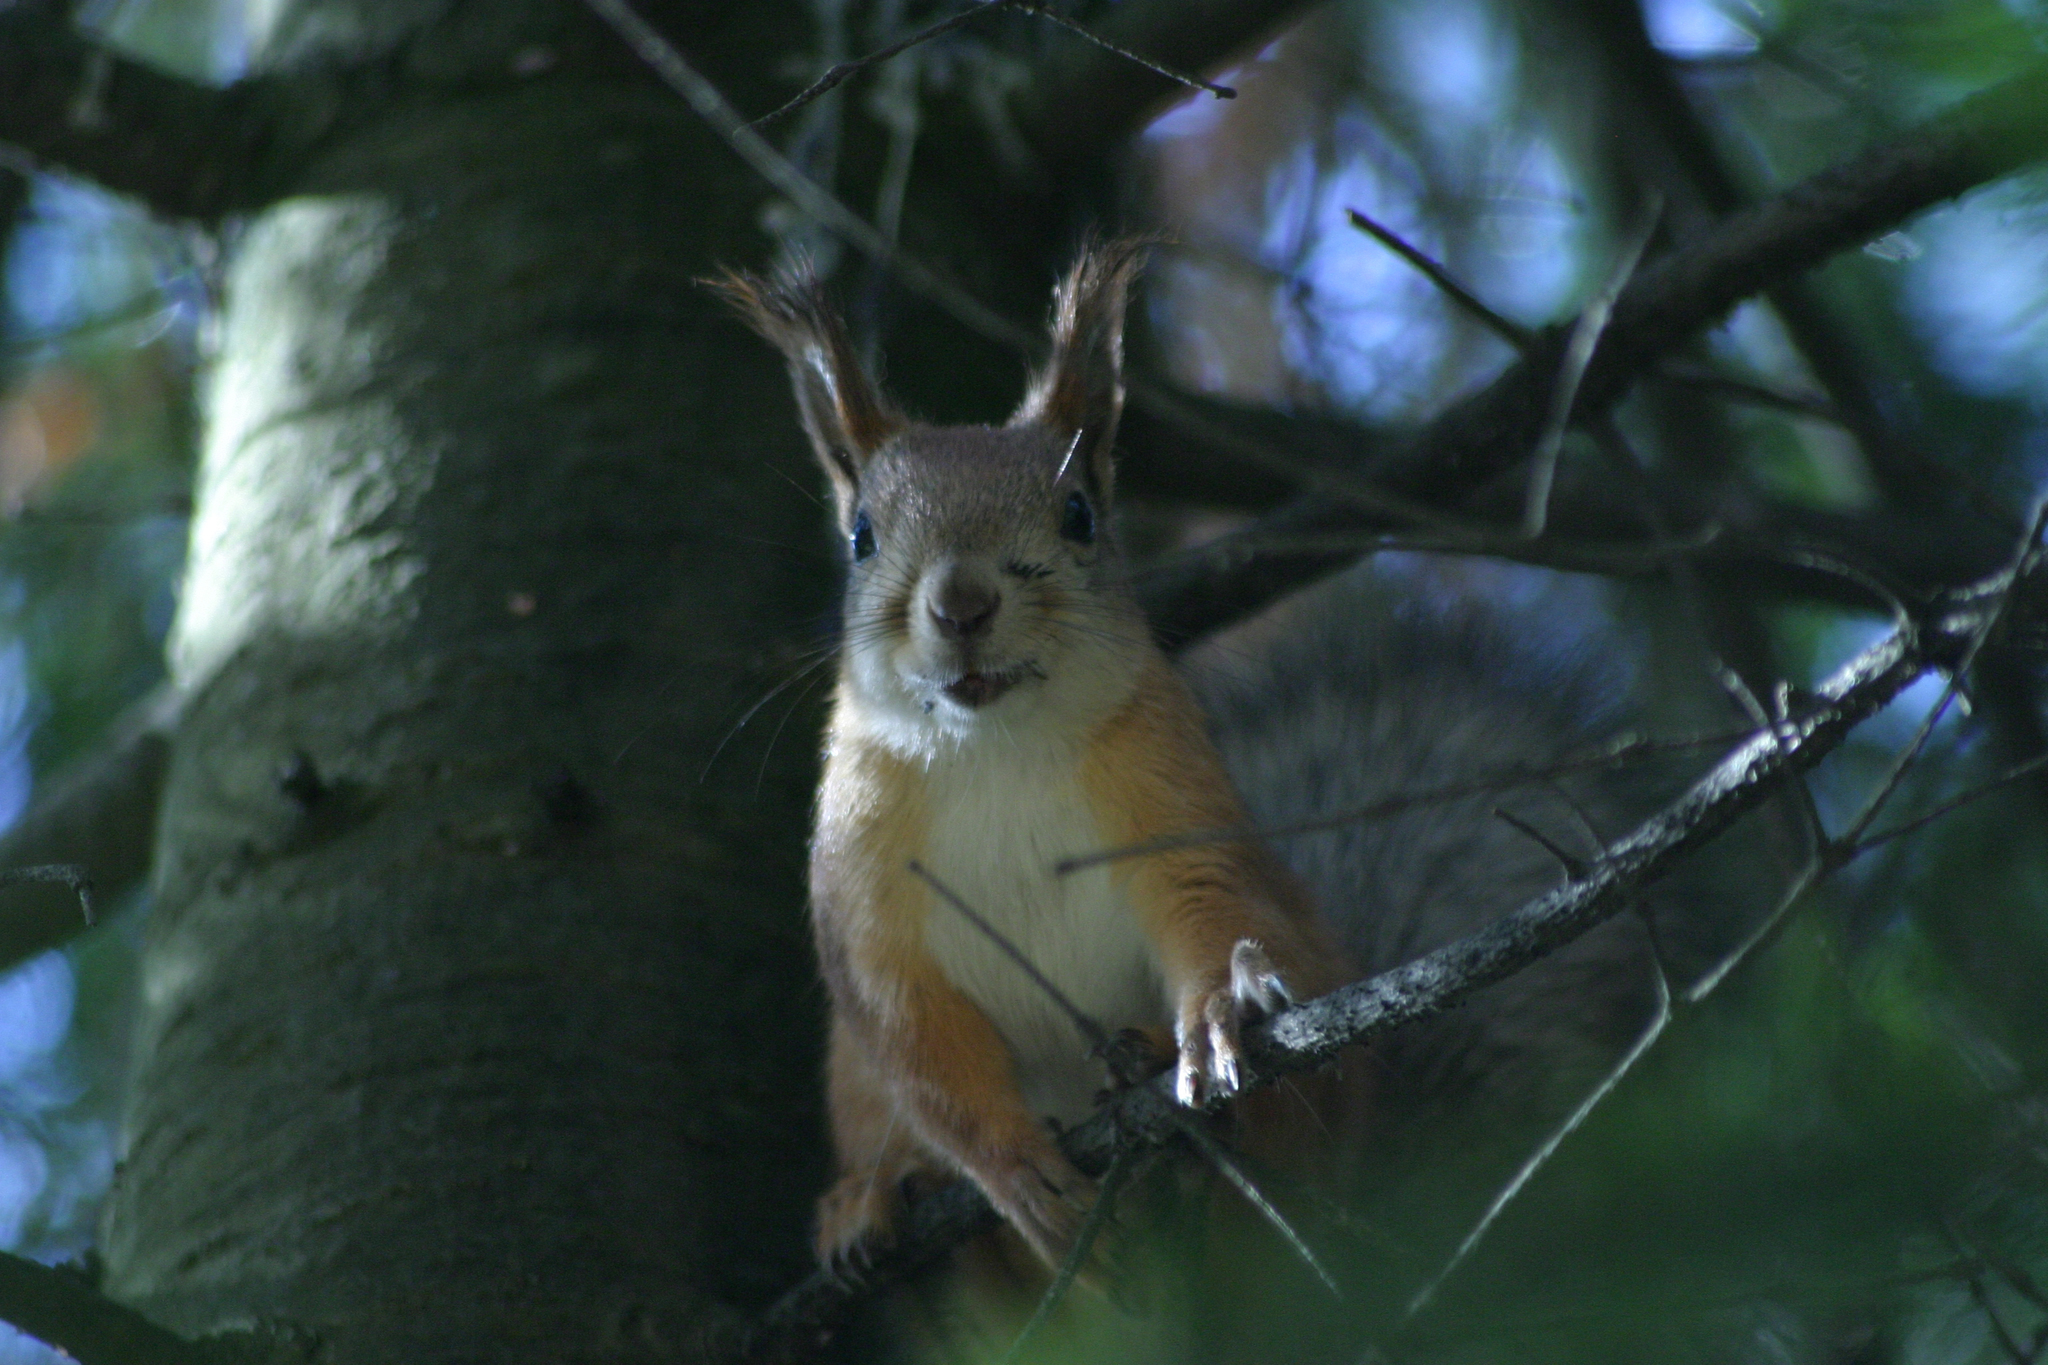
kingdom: Animalia
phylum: Chordata
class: Mammalia
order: Rodentia
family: Sciuridae
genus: Sciurus
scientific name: Sciurus vulgaris
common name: Eurasian red squirrel
